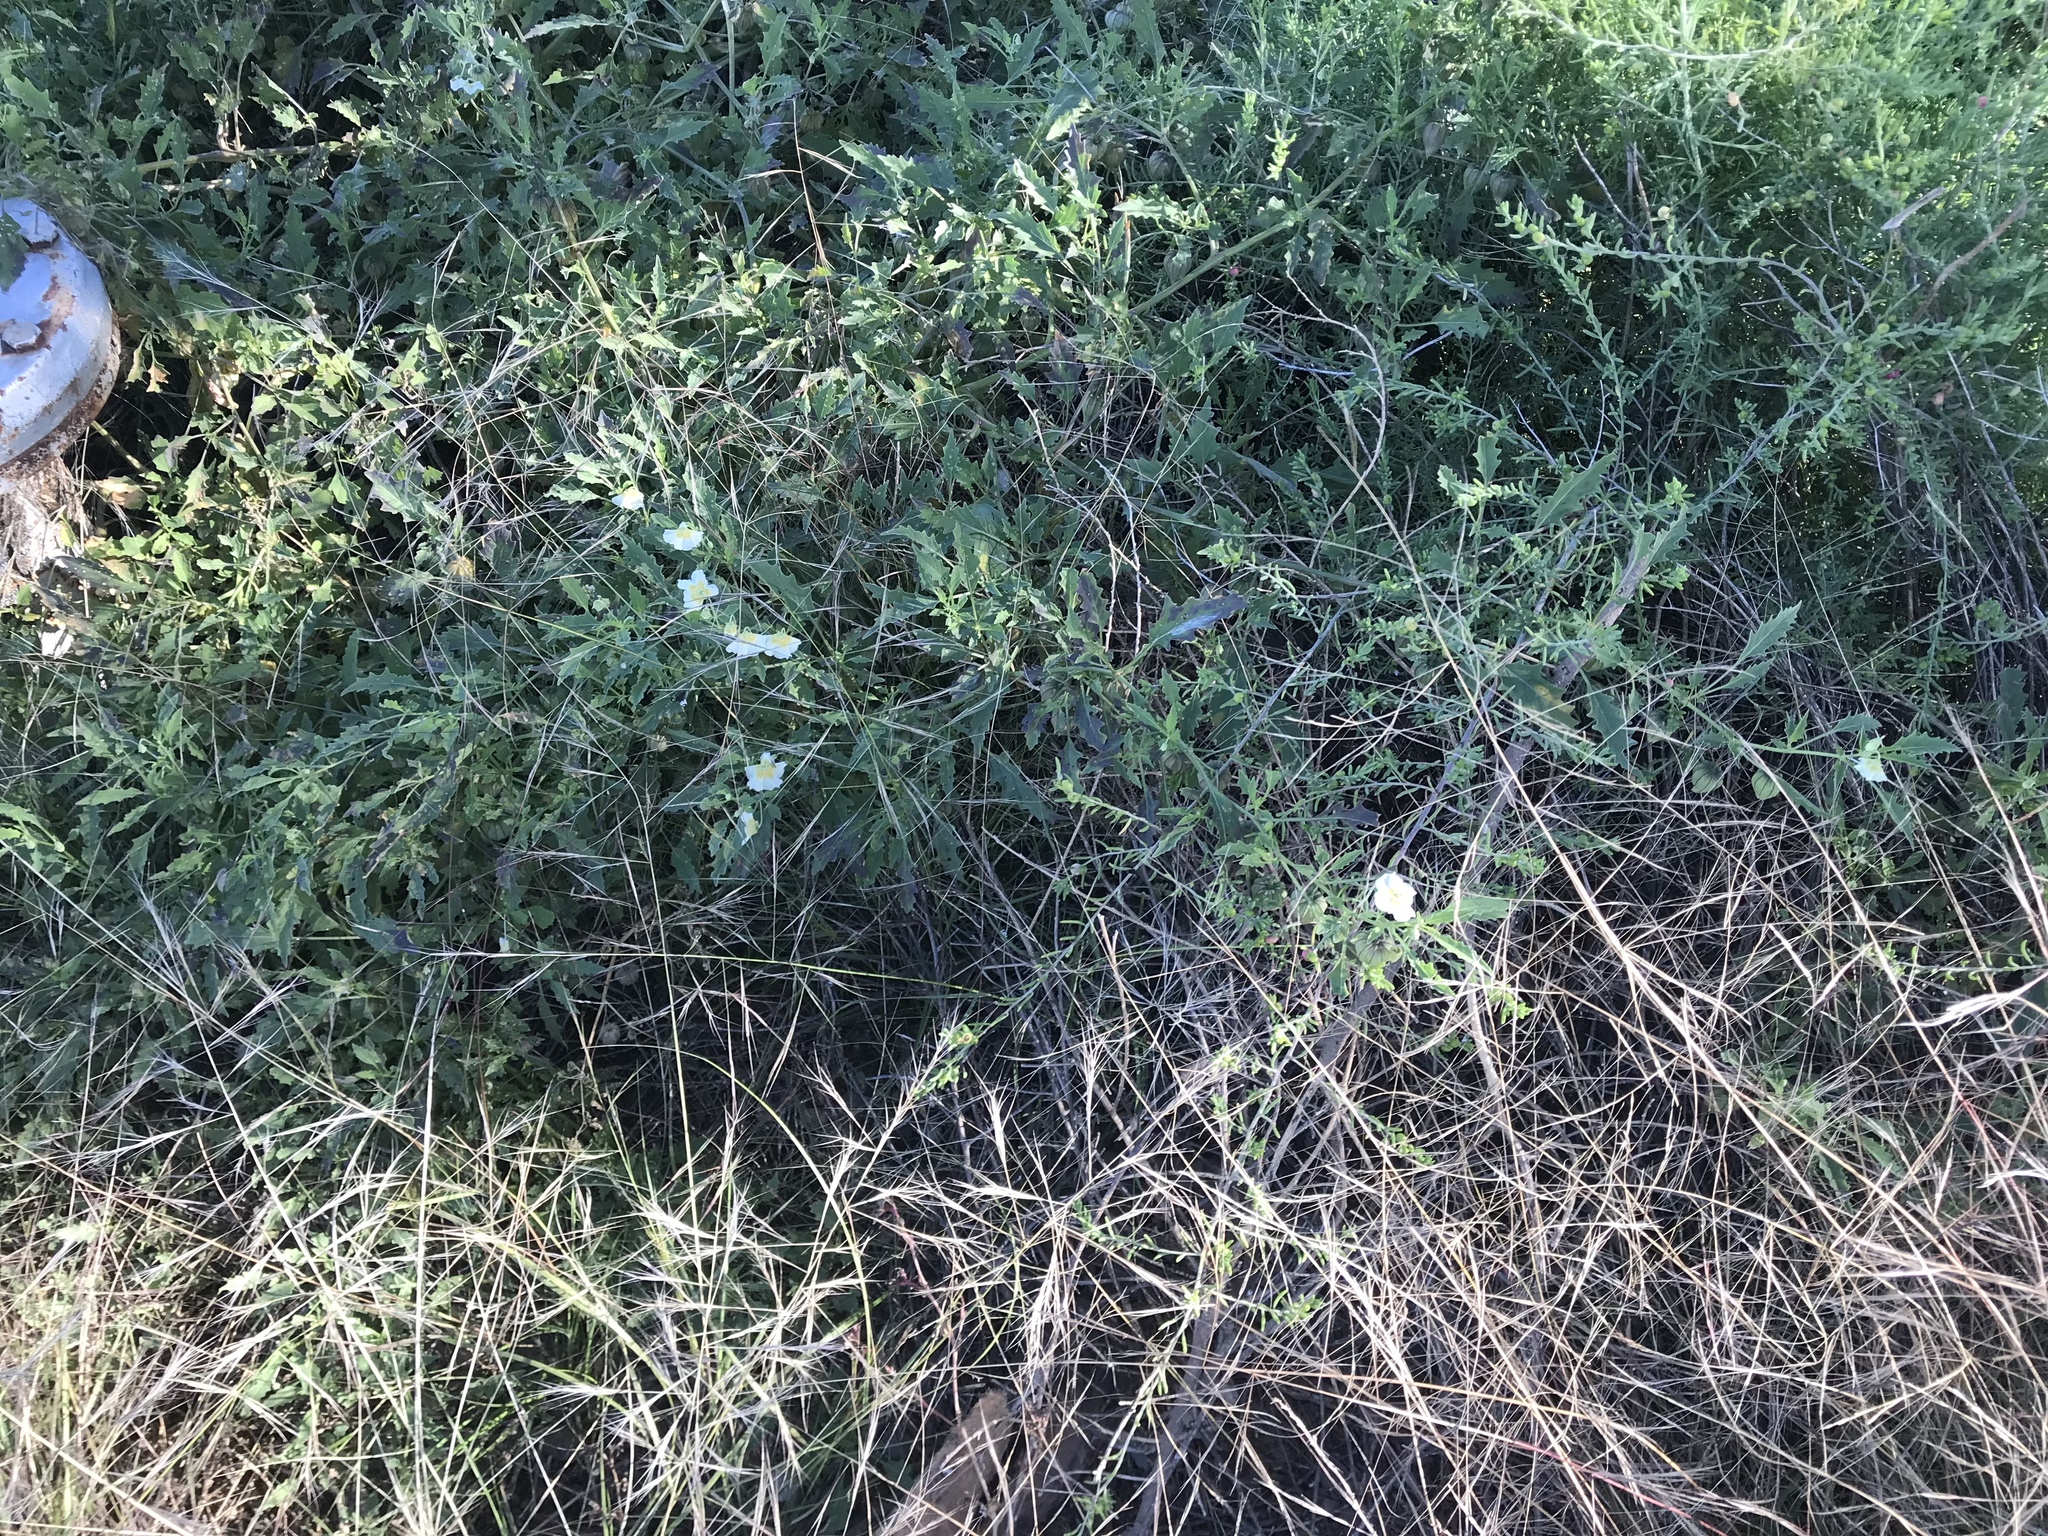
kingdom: Plantae
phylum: Tracheophyta
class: Magnoliopsida
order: Solanales
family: Solanaceae
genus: Physalis
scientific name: Physalis acutifolia
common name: Wright's ground-cherry
